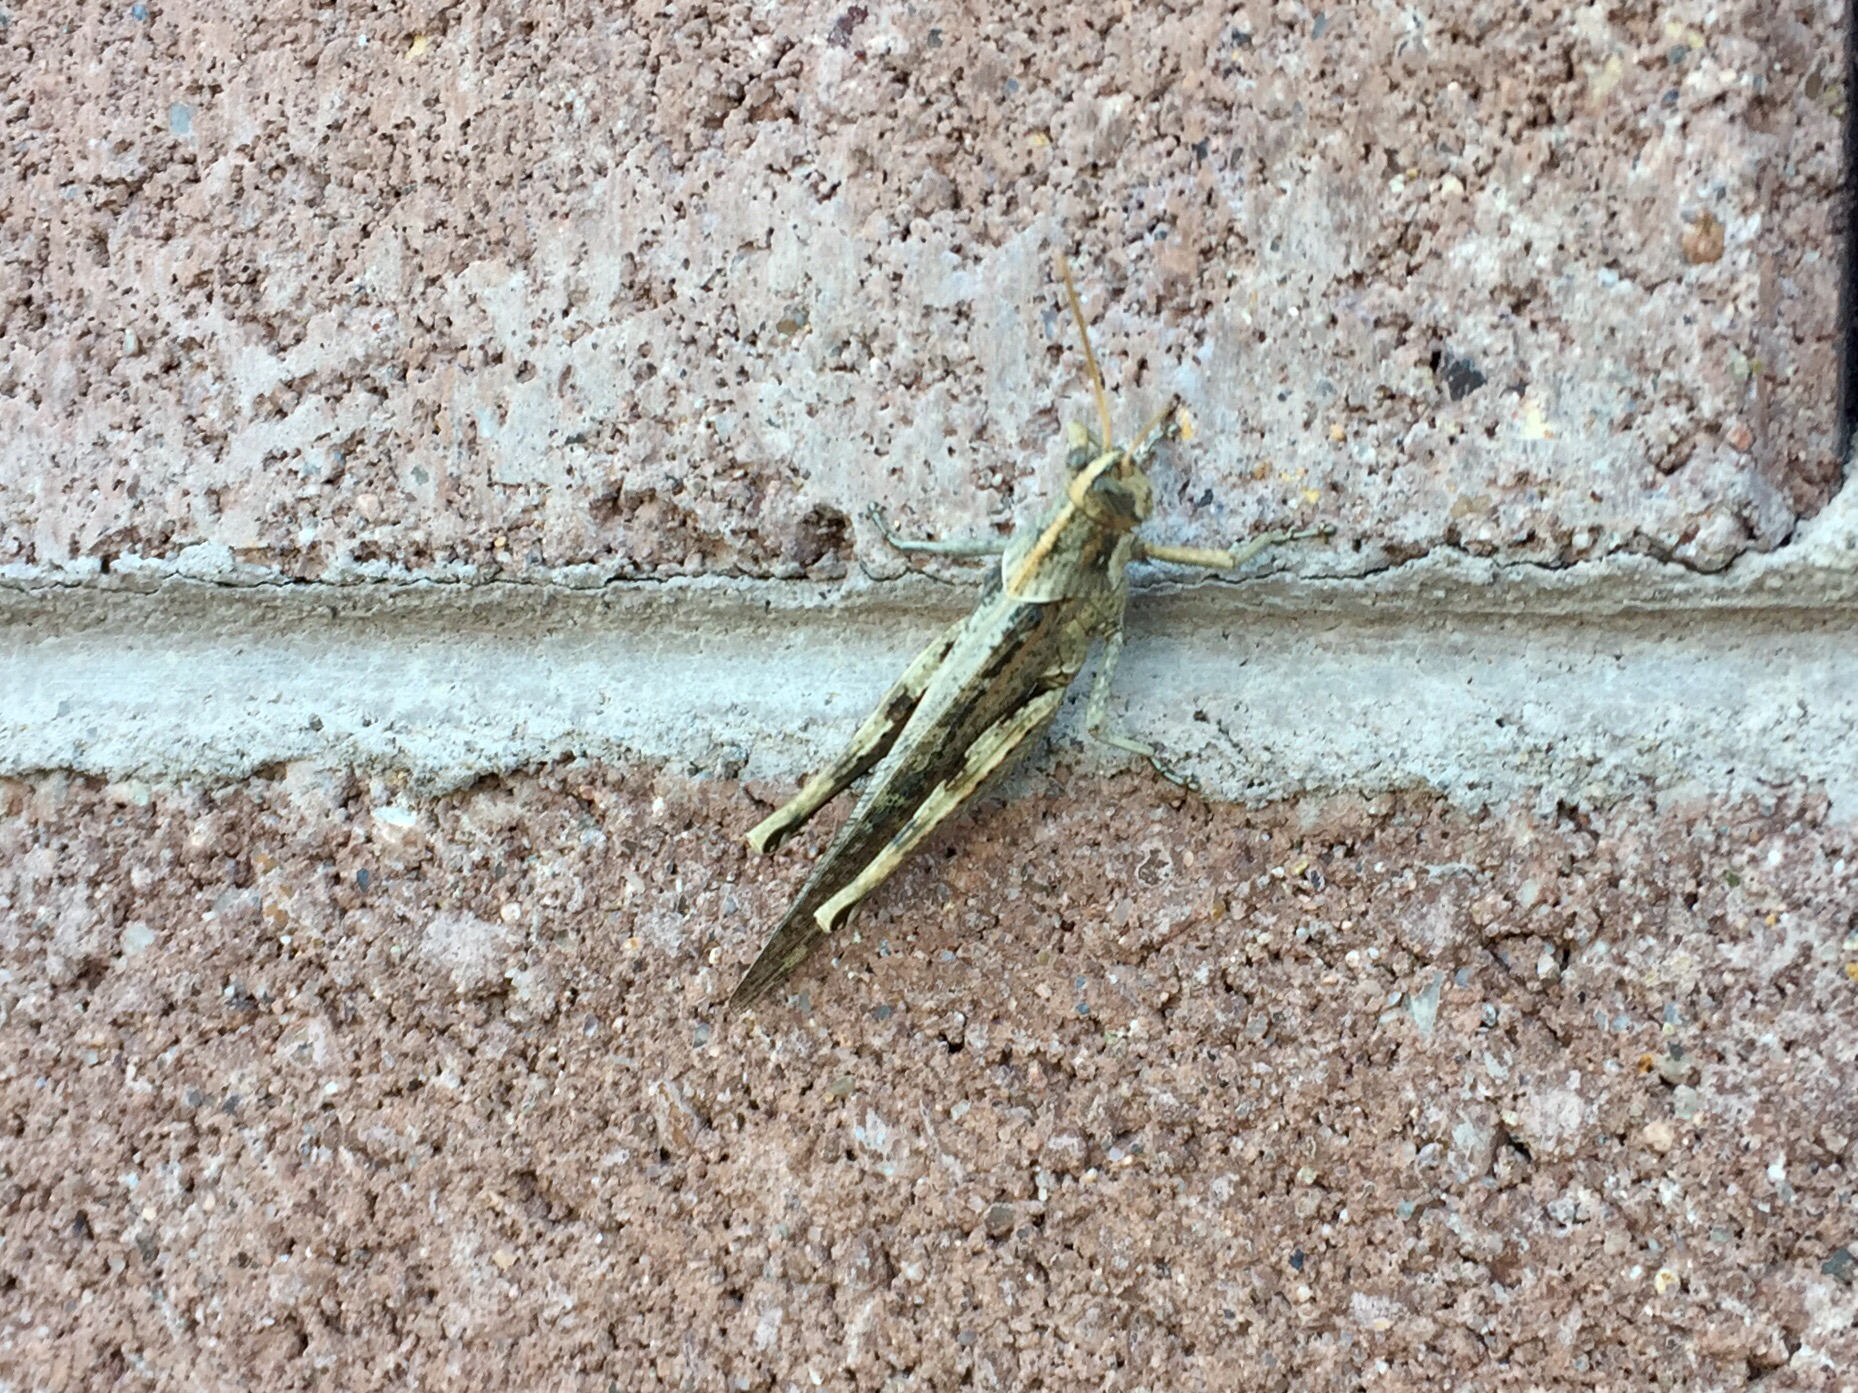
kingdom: Animalia
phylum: Arthropoda
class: Insecta
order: Orthoptera
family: Acrididae
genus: Schistocerca
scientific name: Schistocerca nitens
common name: Vagrant grasshopper
